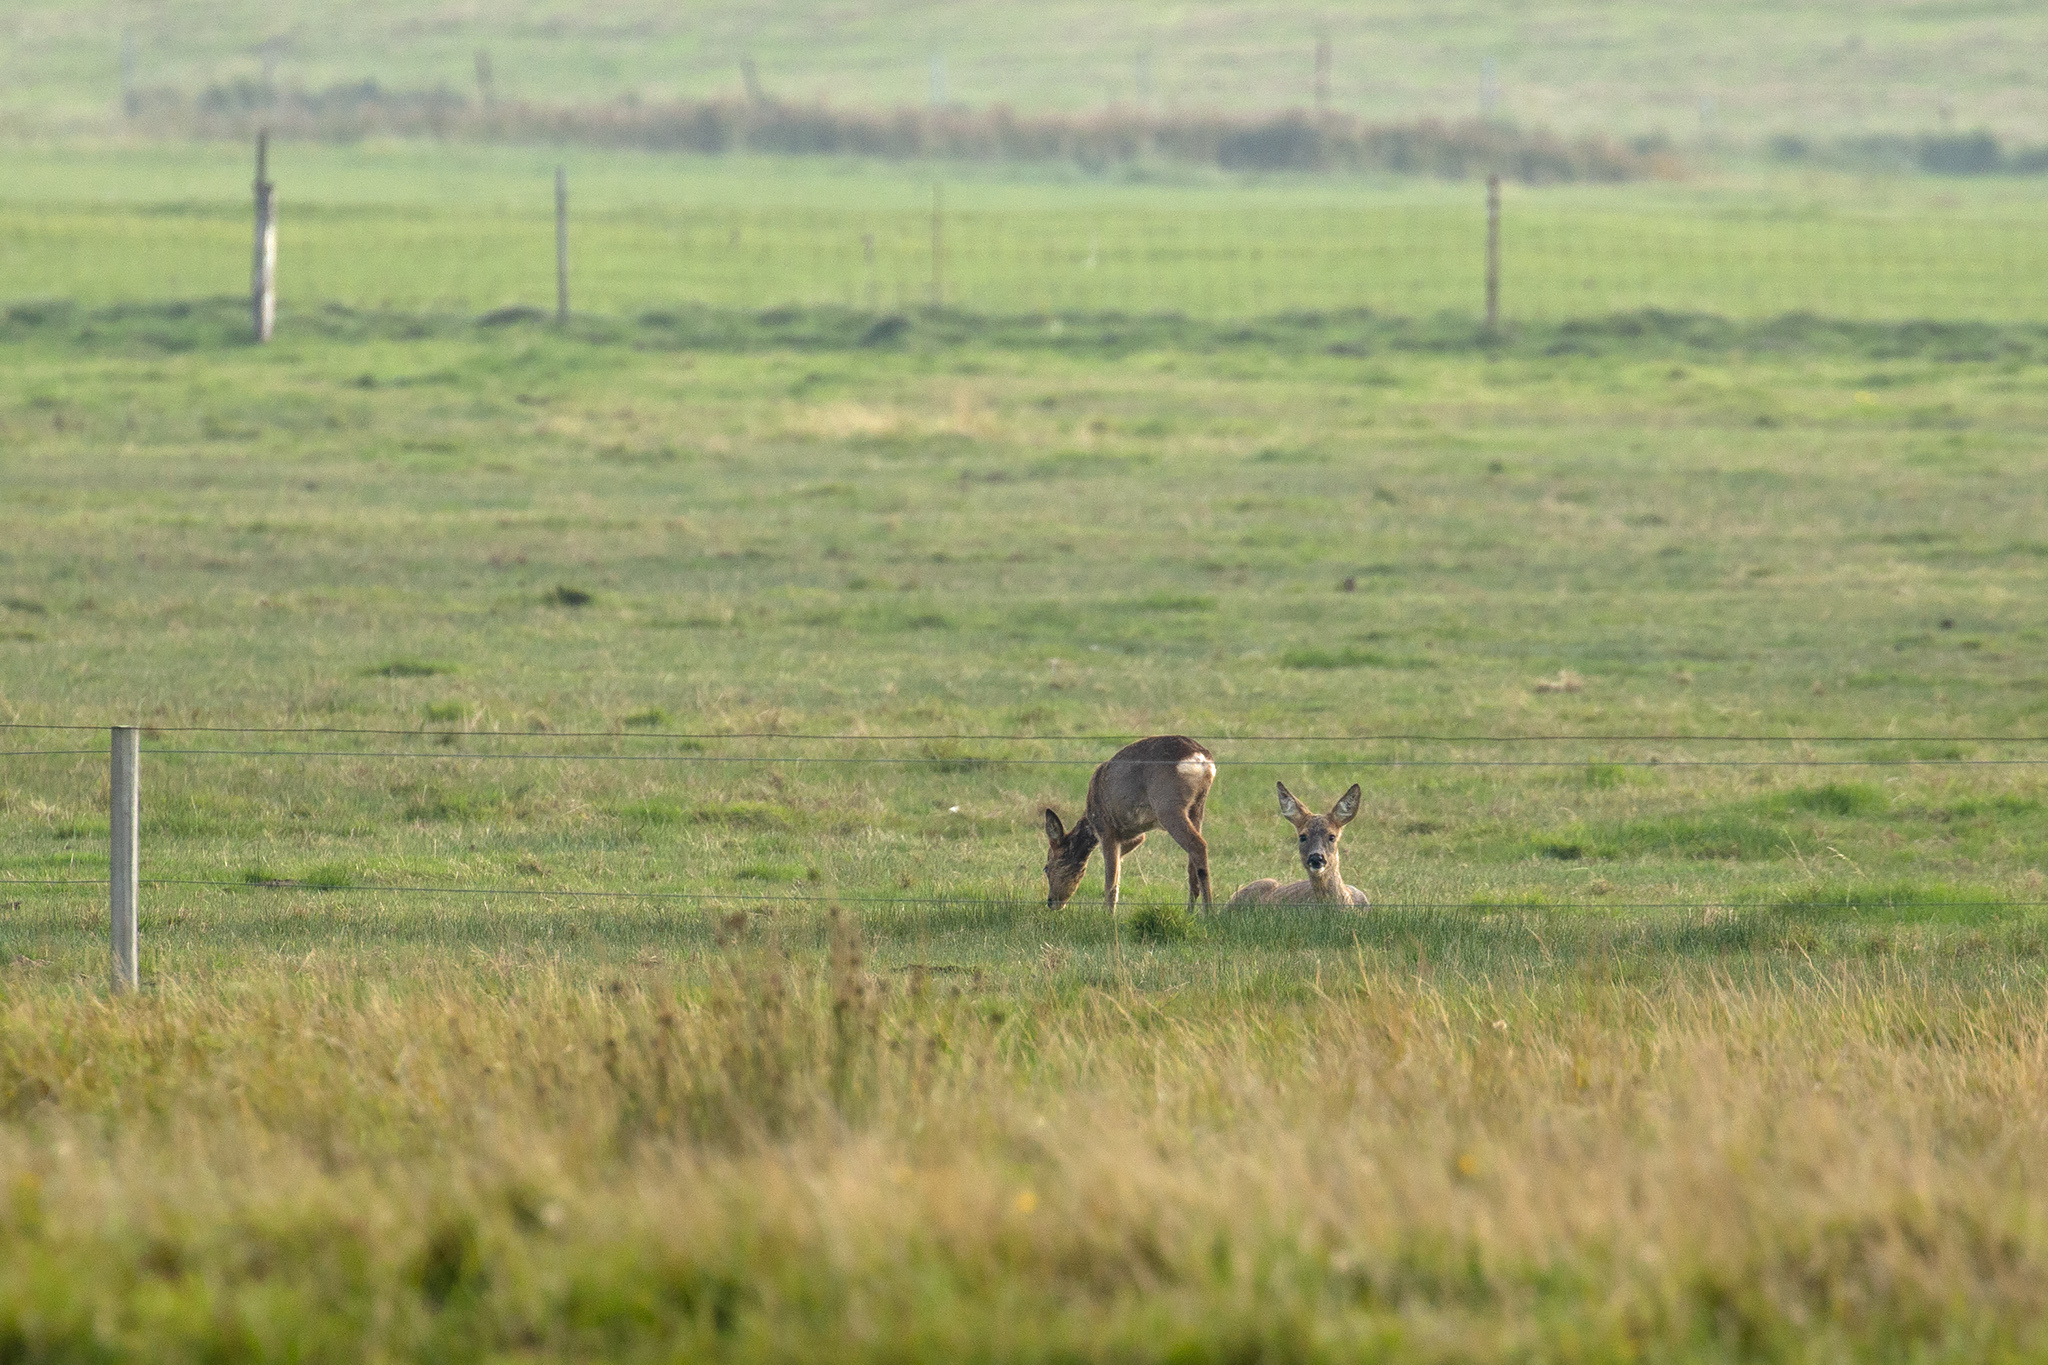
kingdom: Animalia
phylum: Chordata
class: Mammalia
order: Artiodactyla
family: Cervidae
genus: Capreolus
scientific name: Capreolus capreolus
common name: Western roe deer
